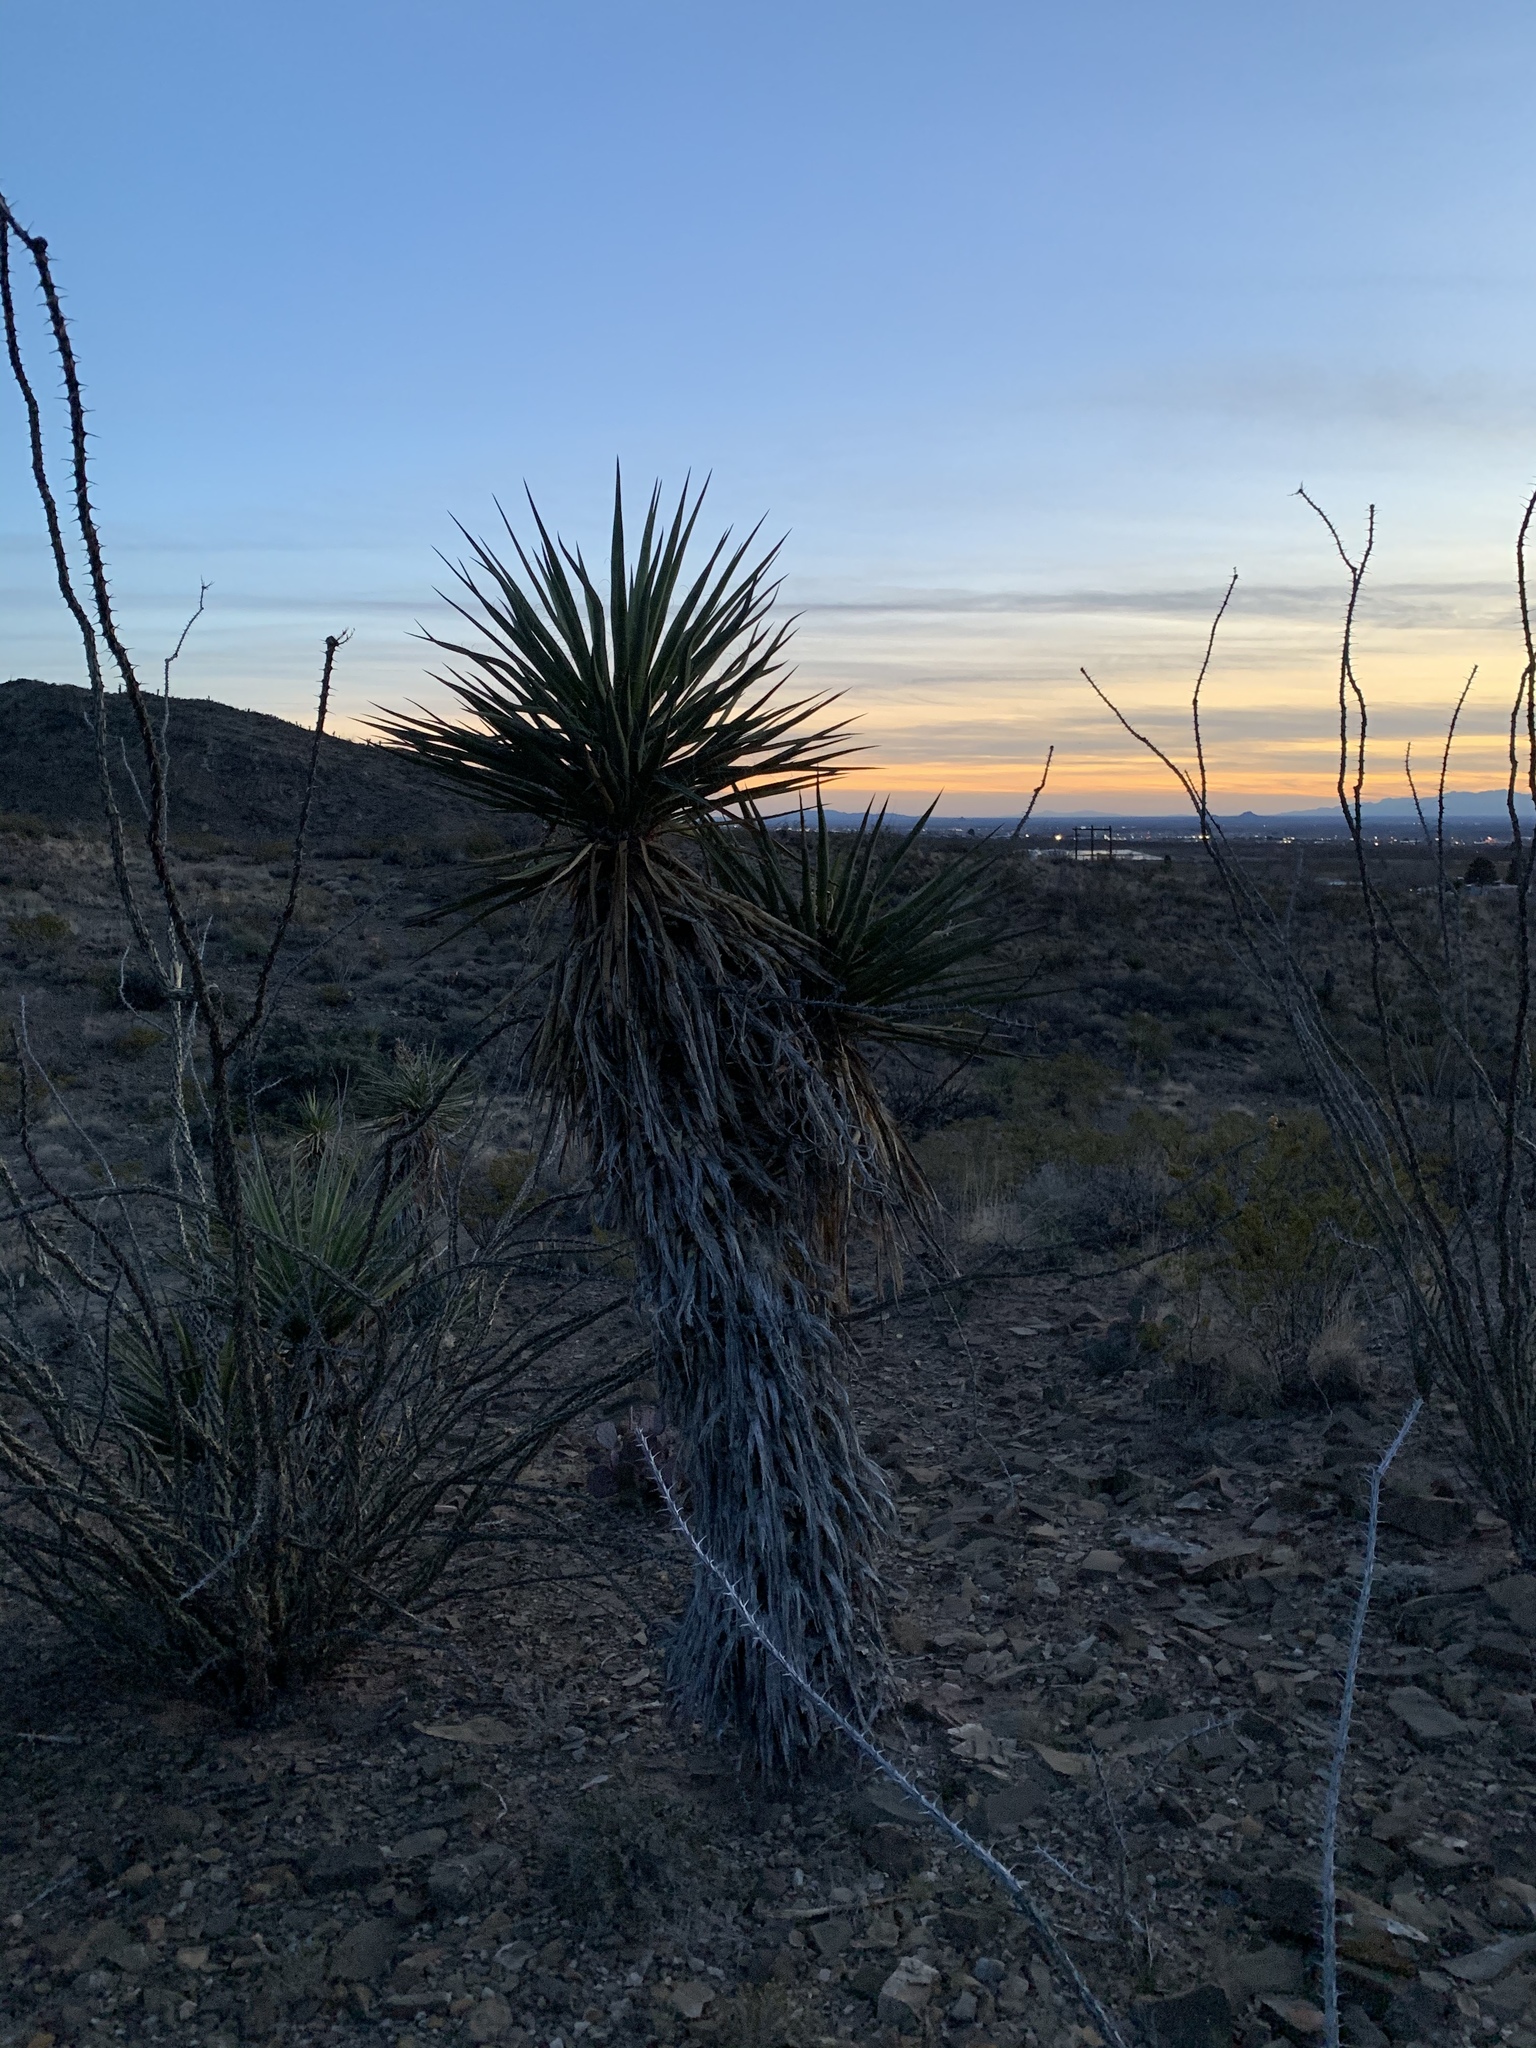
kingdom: Plantae
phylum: Tracheophyta
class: Liliopsida
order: Asparagales
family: Asparagaceae
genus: Yucca
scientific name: Yucca treculiana
